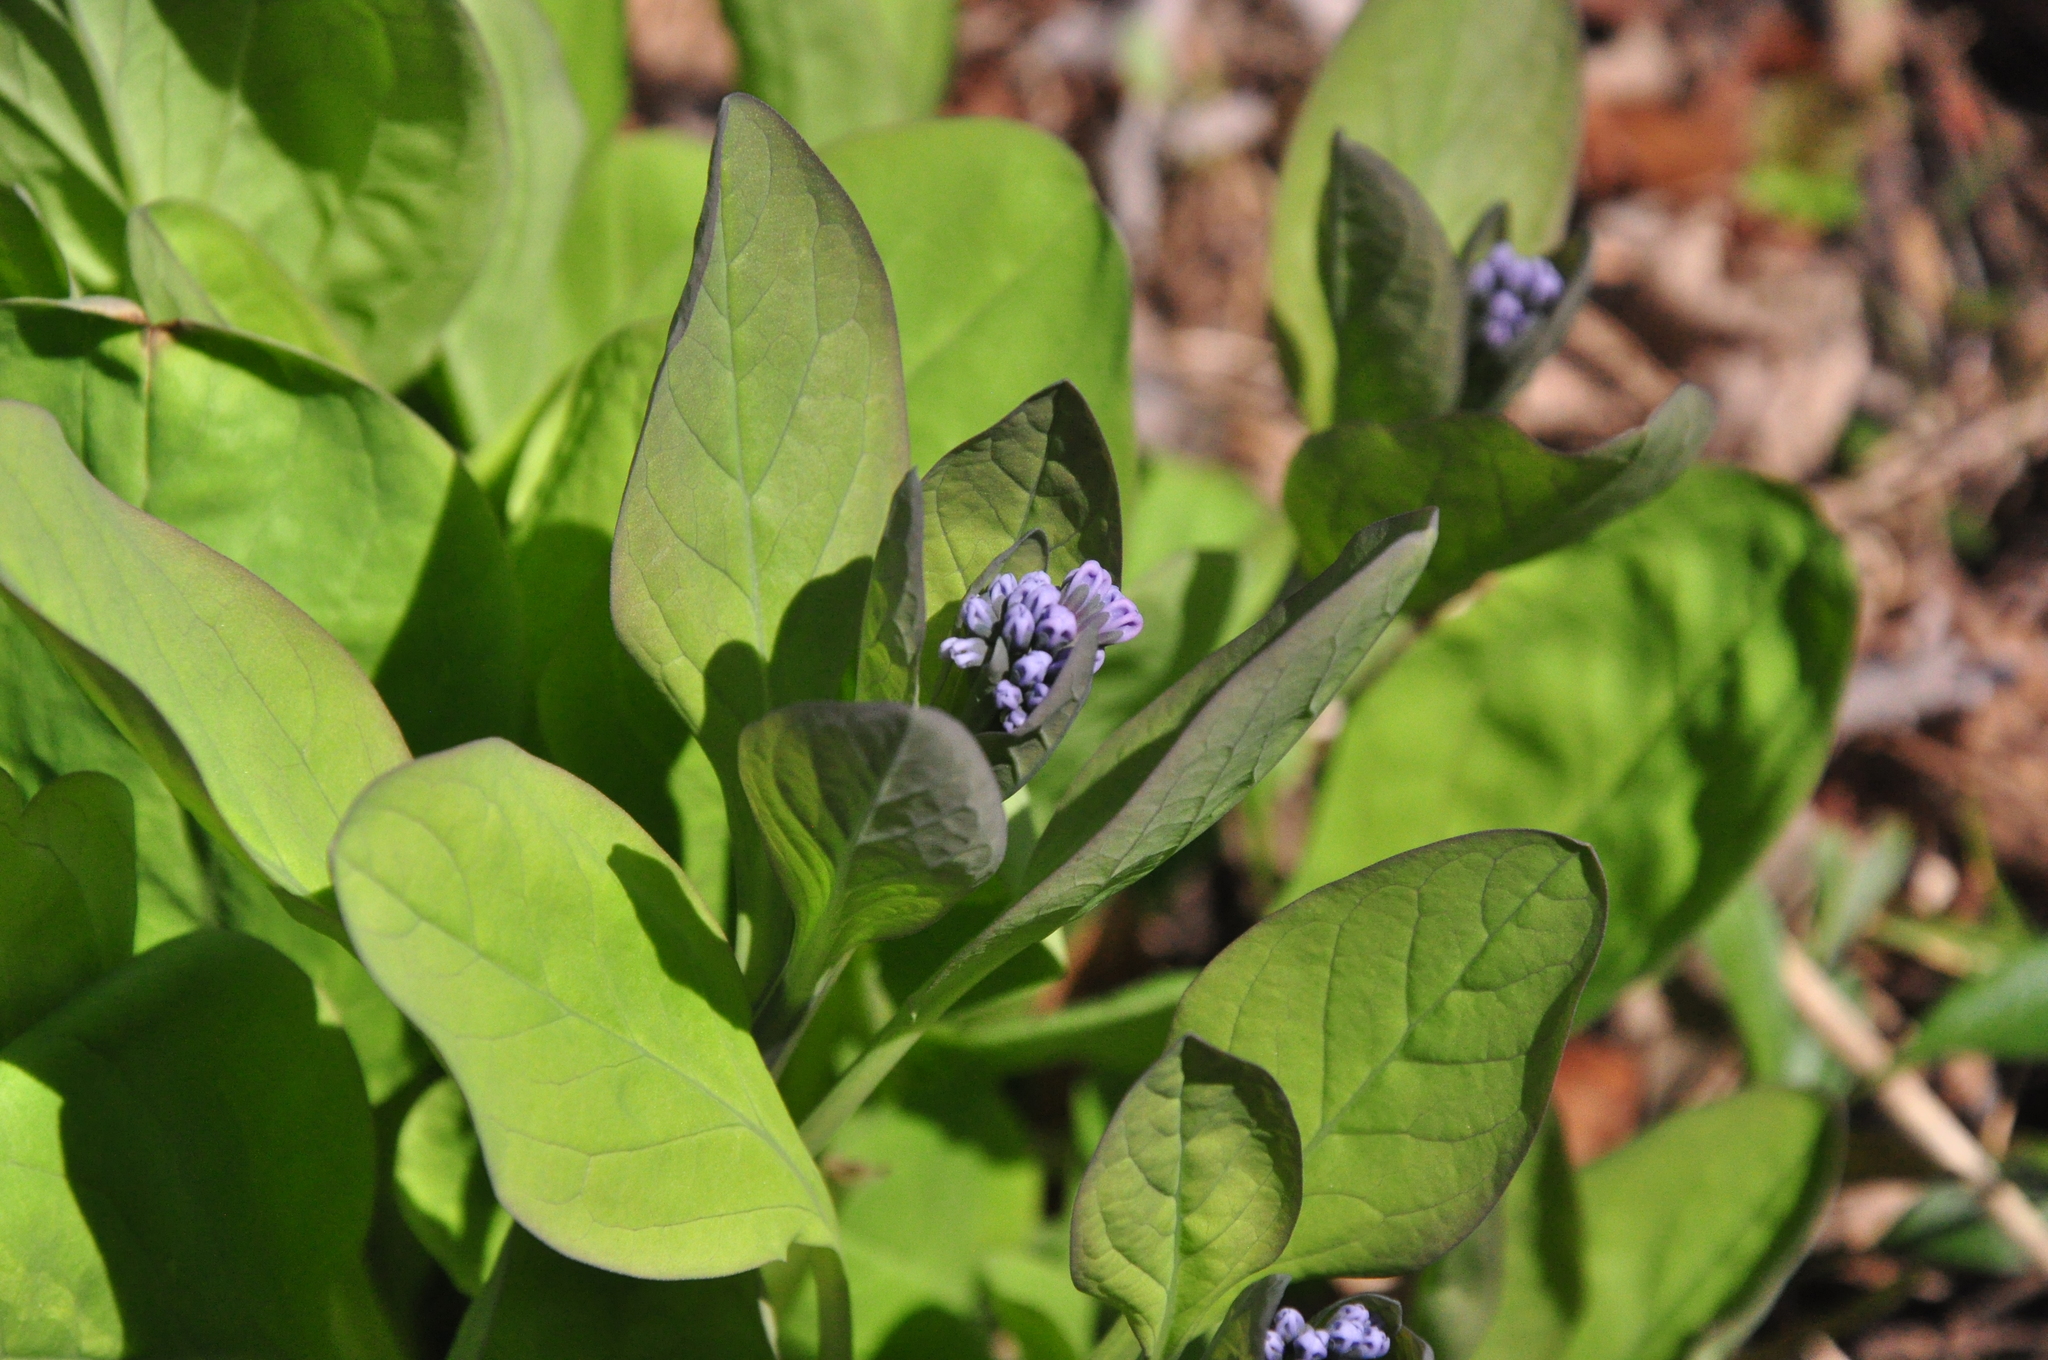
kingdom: Plantae
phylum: Tracheophyta
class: Magnoliopsida
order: Boraginales
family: Boraginaceae
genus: Mertensia
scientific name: Mertensia virginica
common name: Virginia bluebells
